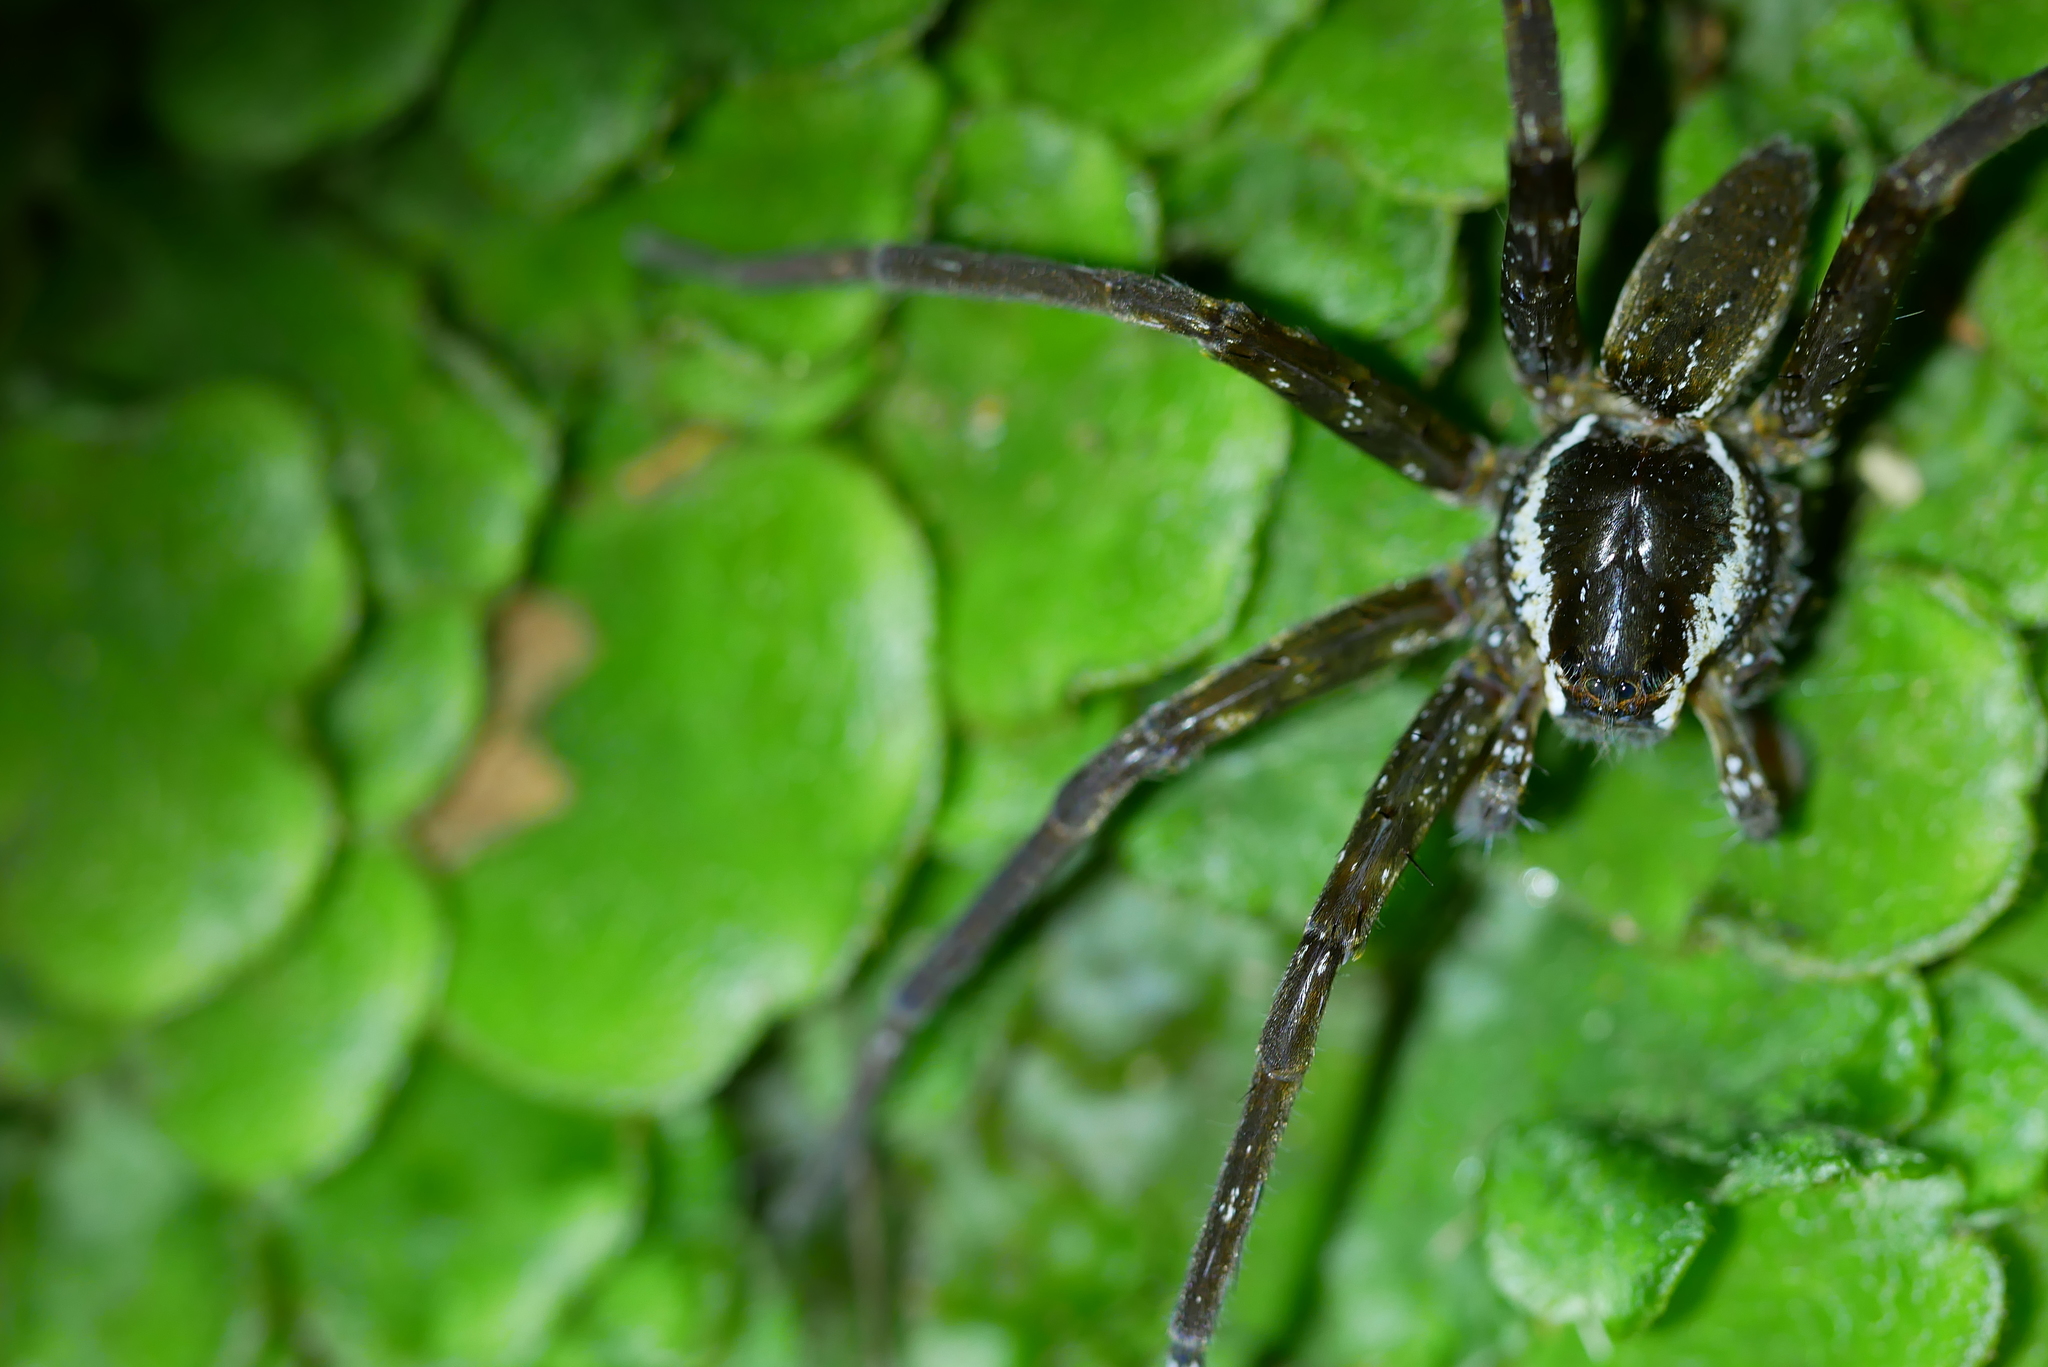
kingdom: Animalia
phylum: Arthropoda
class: Arachnida
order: Araneae
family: Pisauridae
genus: Dolomedes
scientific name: Dolomedes raptor
